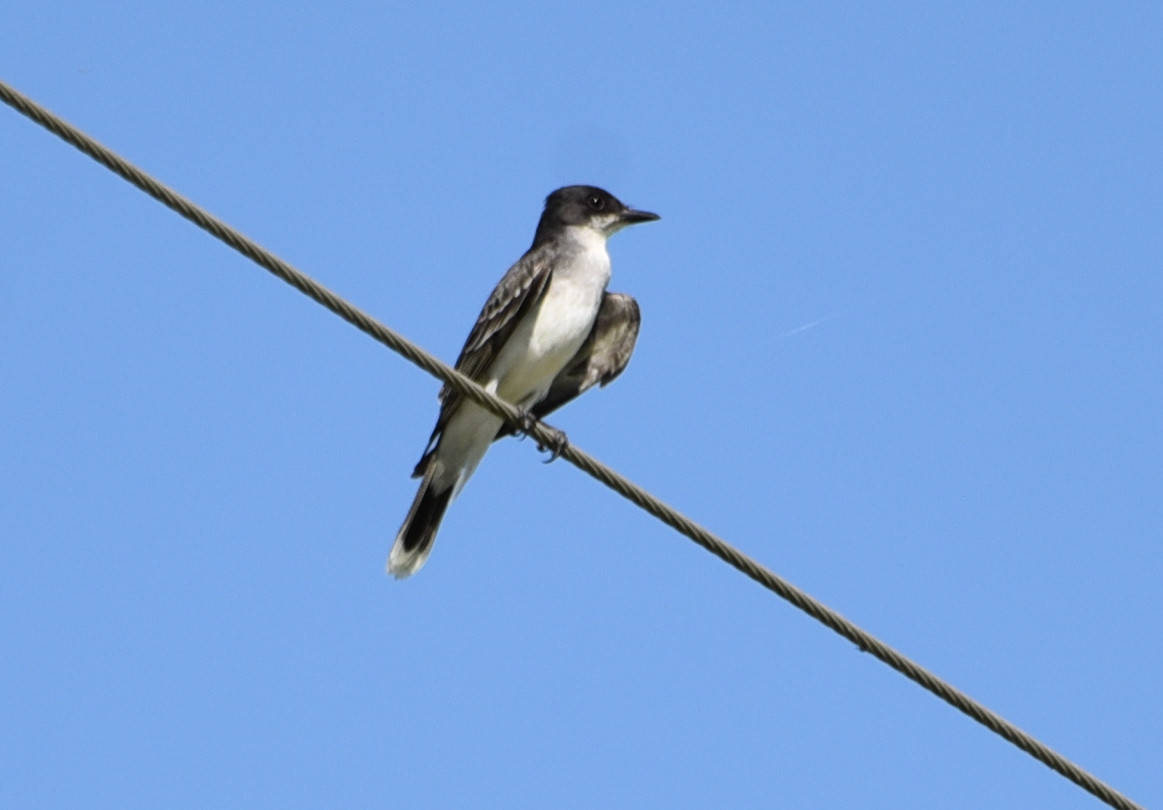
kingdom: Animalia
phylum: Chordata
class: Aves
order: Passeriformes
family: Tyrannidae
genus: Tyrannus
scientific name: Tyrannus tyrannus
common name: Eastern kingbird
